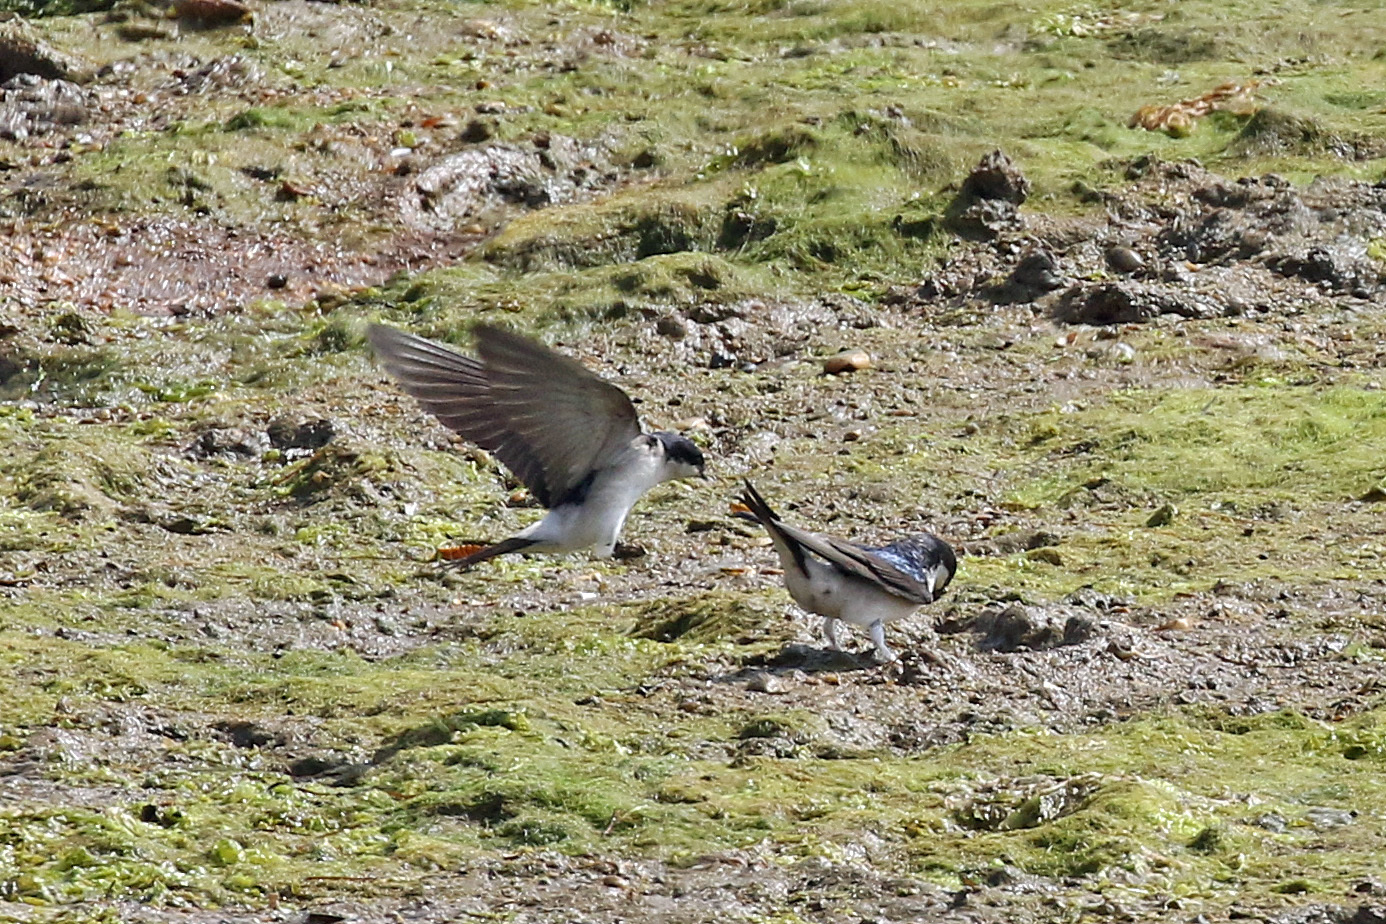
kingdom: Animalia
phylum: Chordata
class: Aves
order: Passeriformes
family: Hirundinidae
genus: Delichon
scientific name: Delichon urbicum
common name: Common house martin
